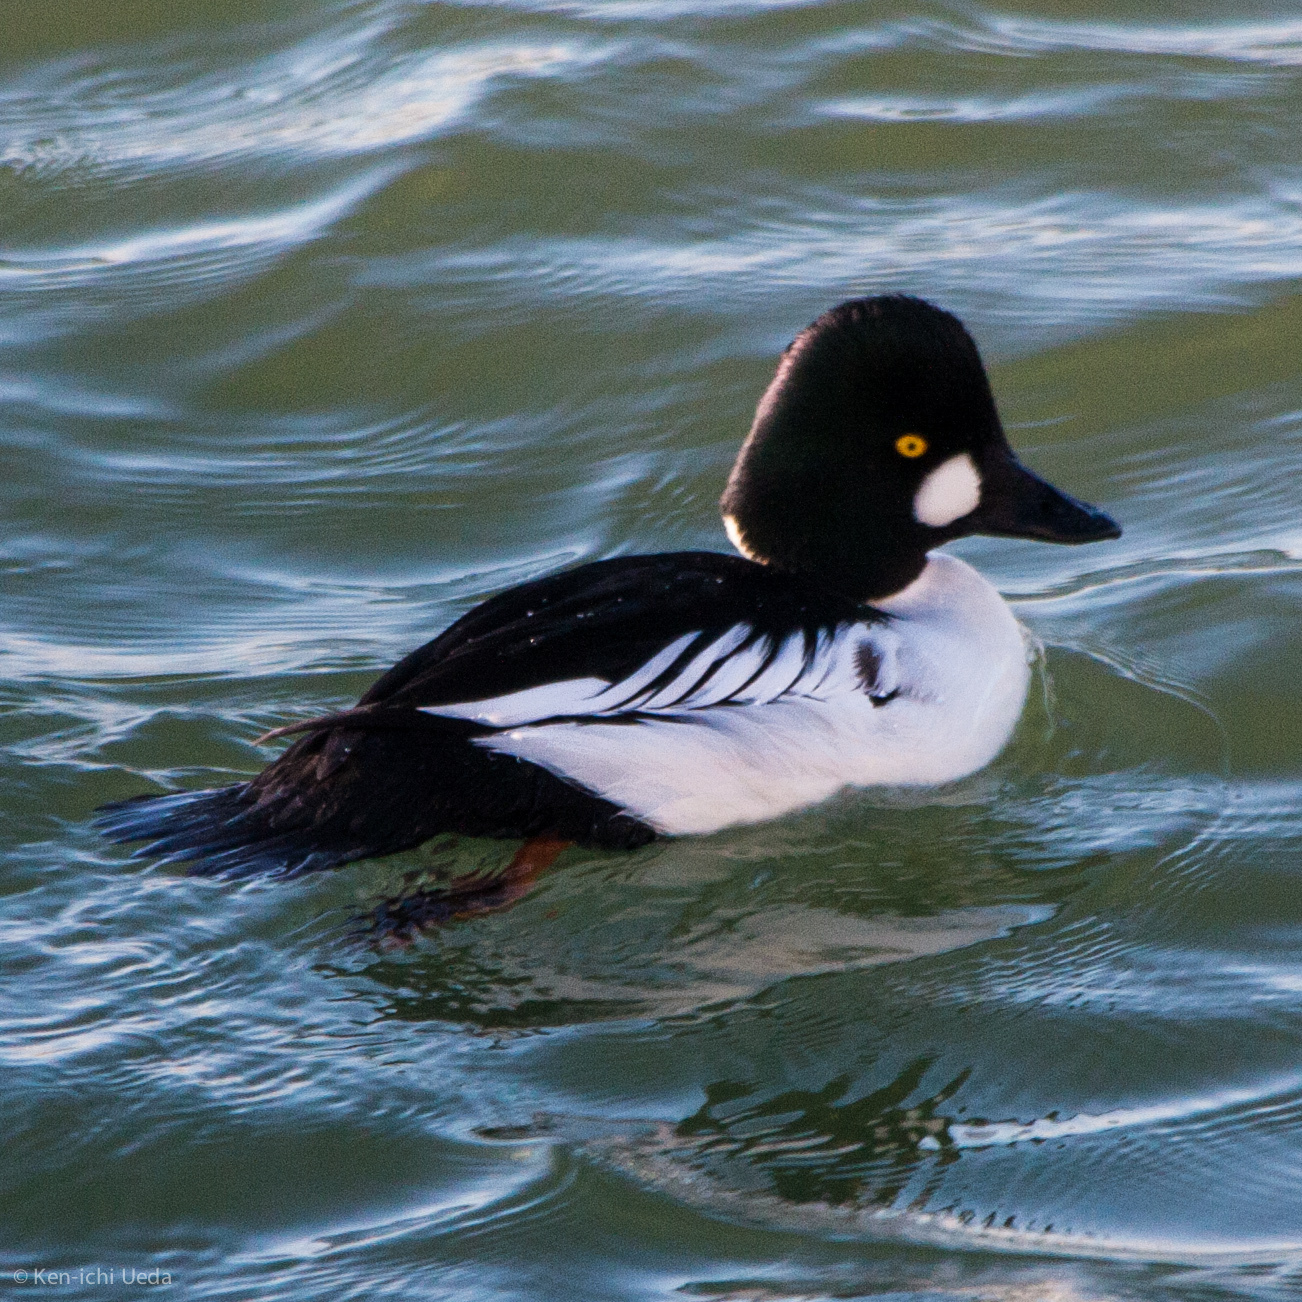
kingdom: Animalia
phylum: Chordata
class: Aves
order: Anseriformes
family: Anatidae
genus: Bucephala
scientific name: Bucephala clangula
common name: Common goldeneye
